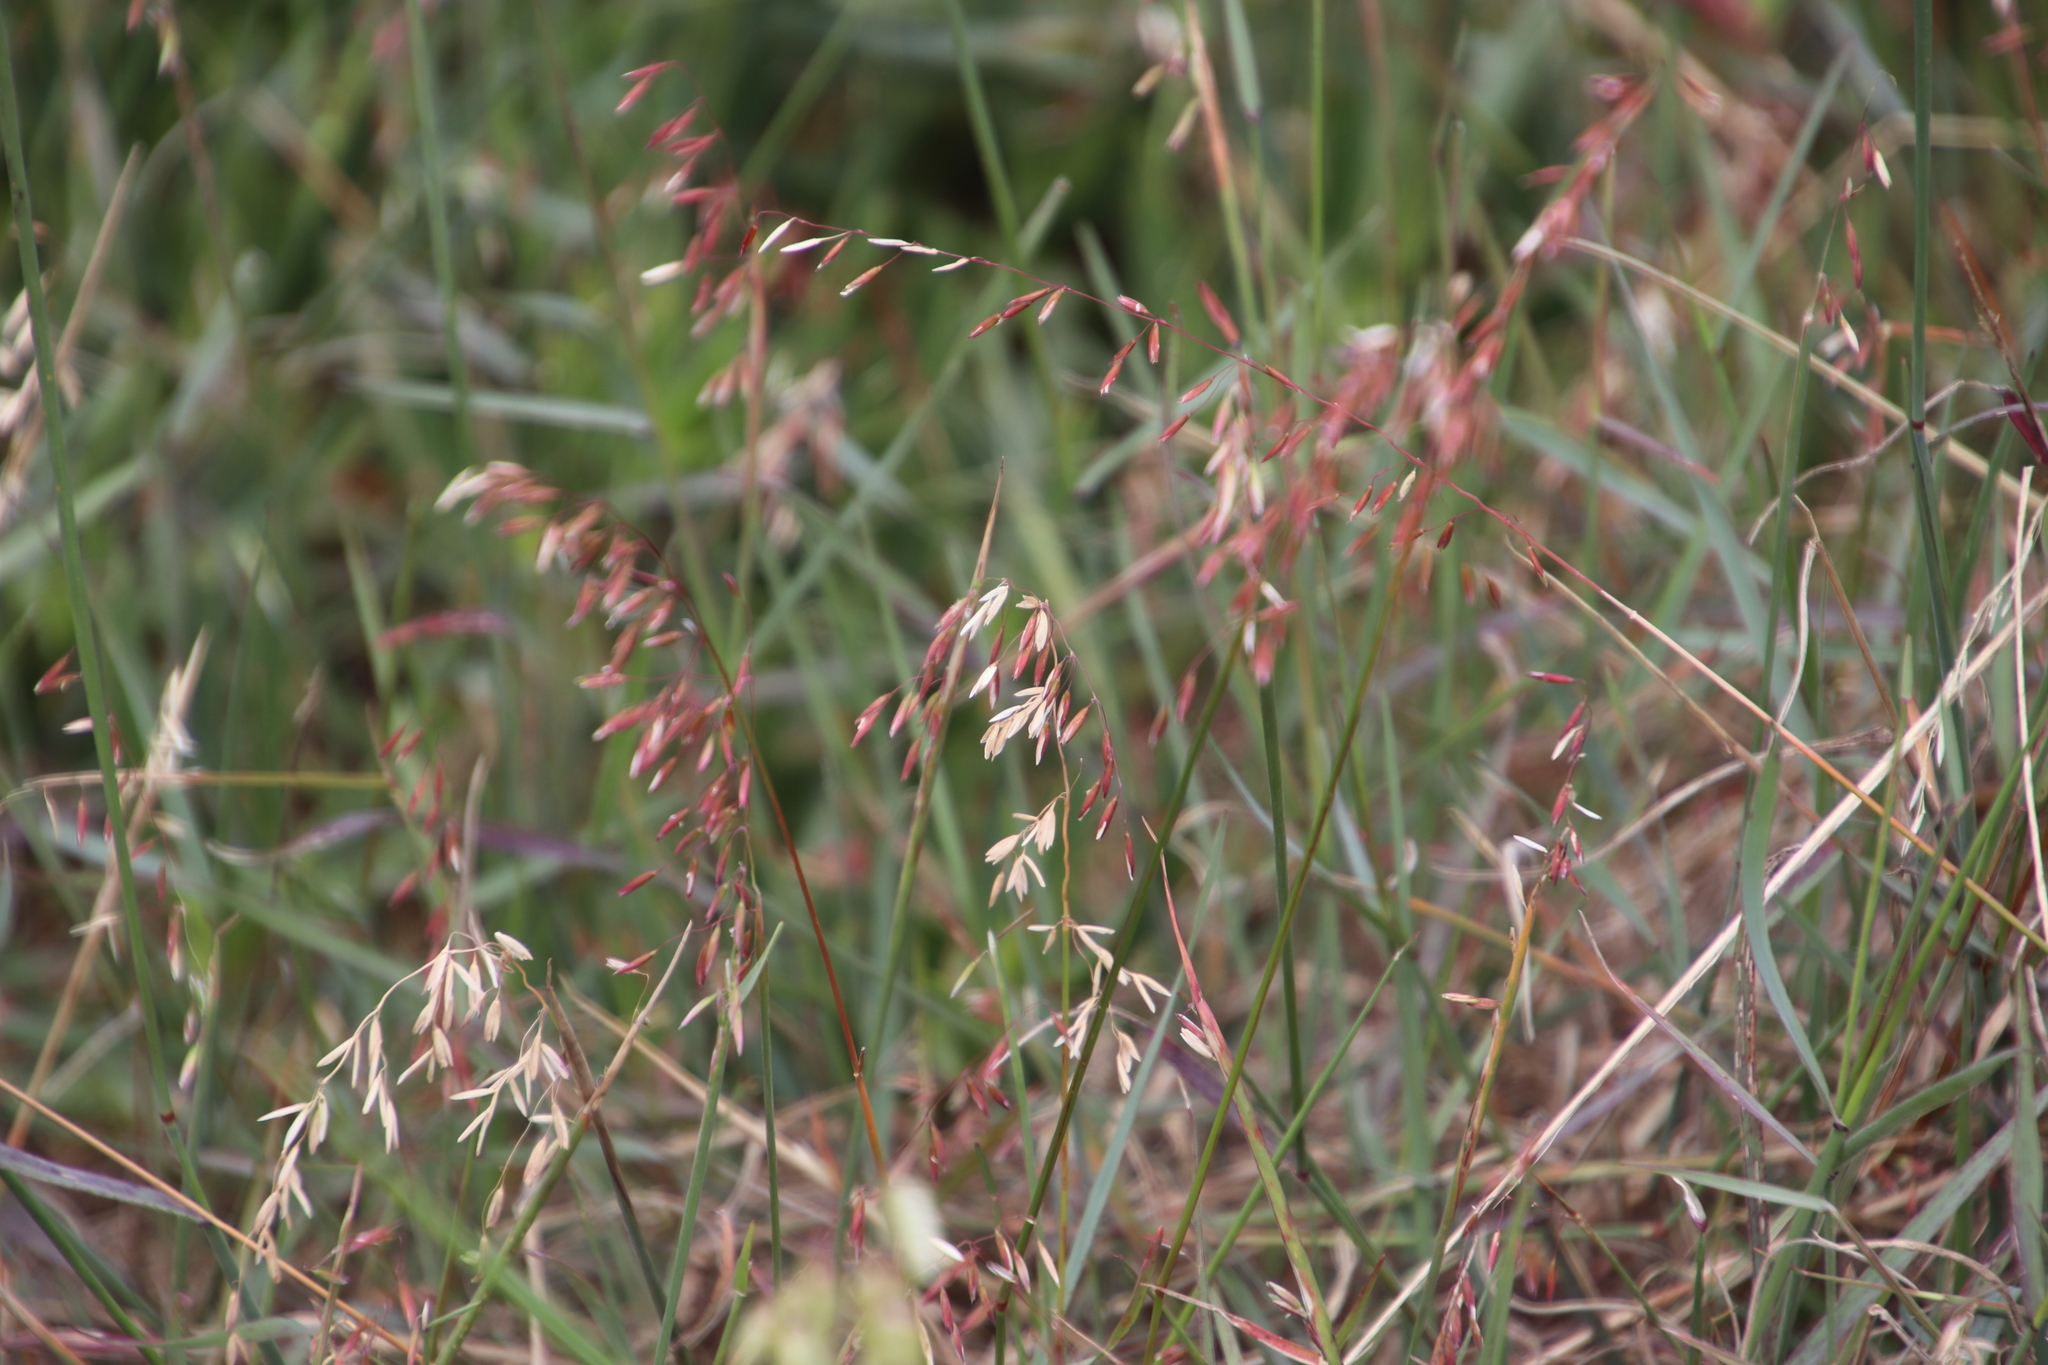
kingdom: Plantae
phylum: Tracheophyta
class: Liliopsida
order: Poales
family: Poaceae
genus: Ehrharta
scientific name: Ehrharta calycina
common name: Perennial veldtgrass
